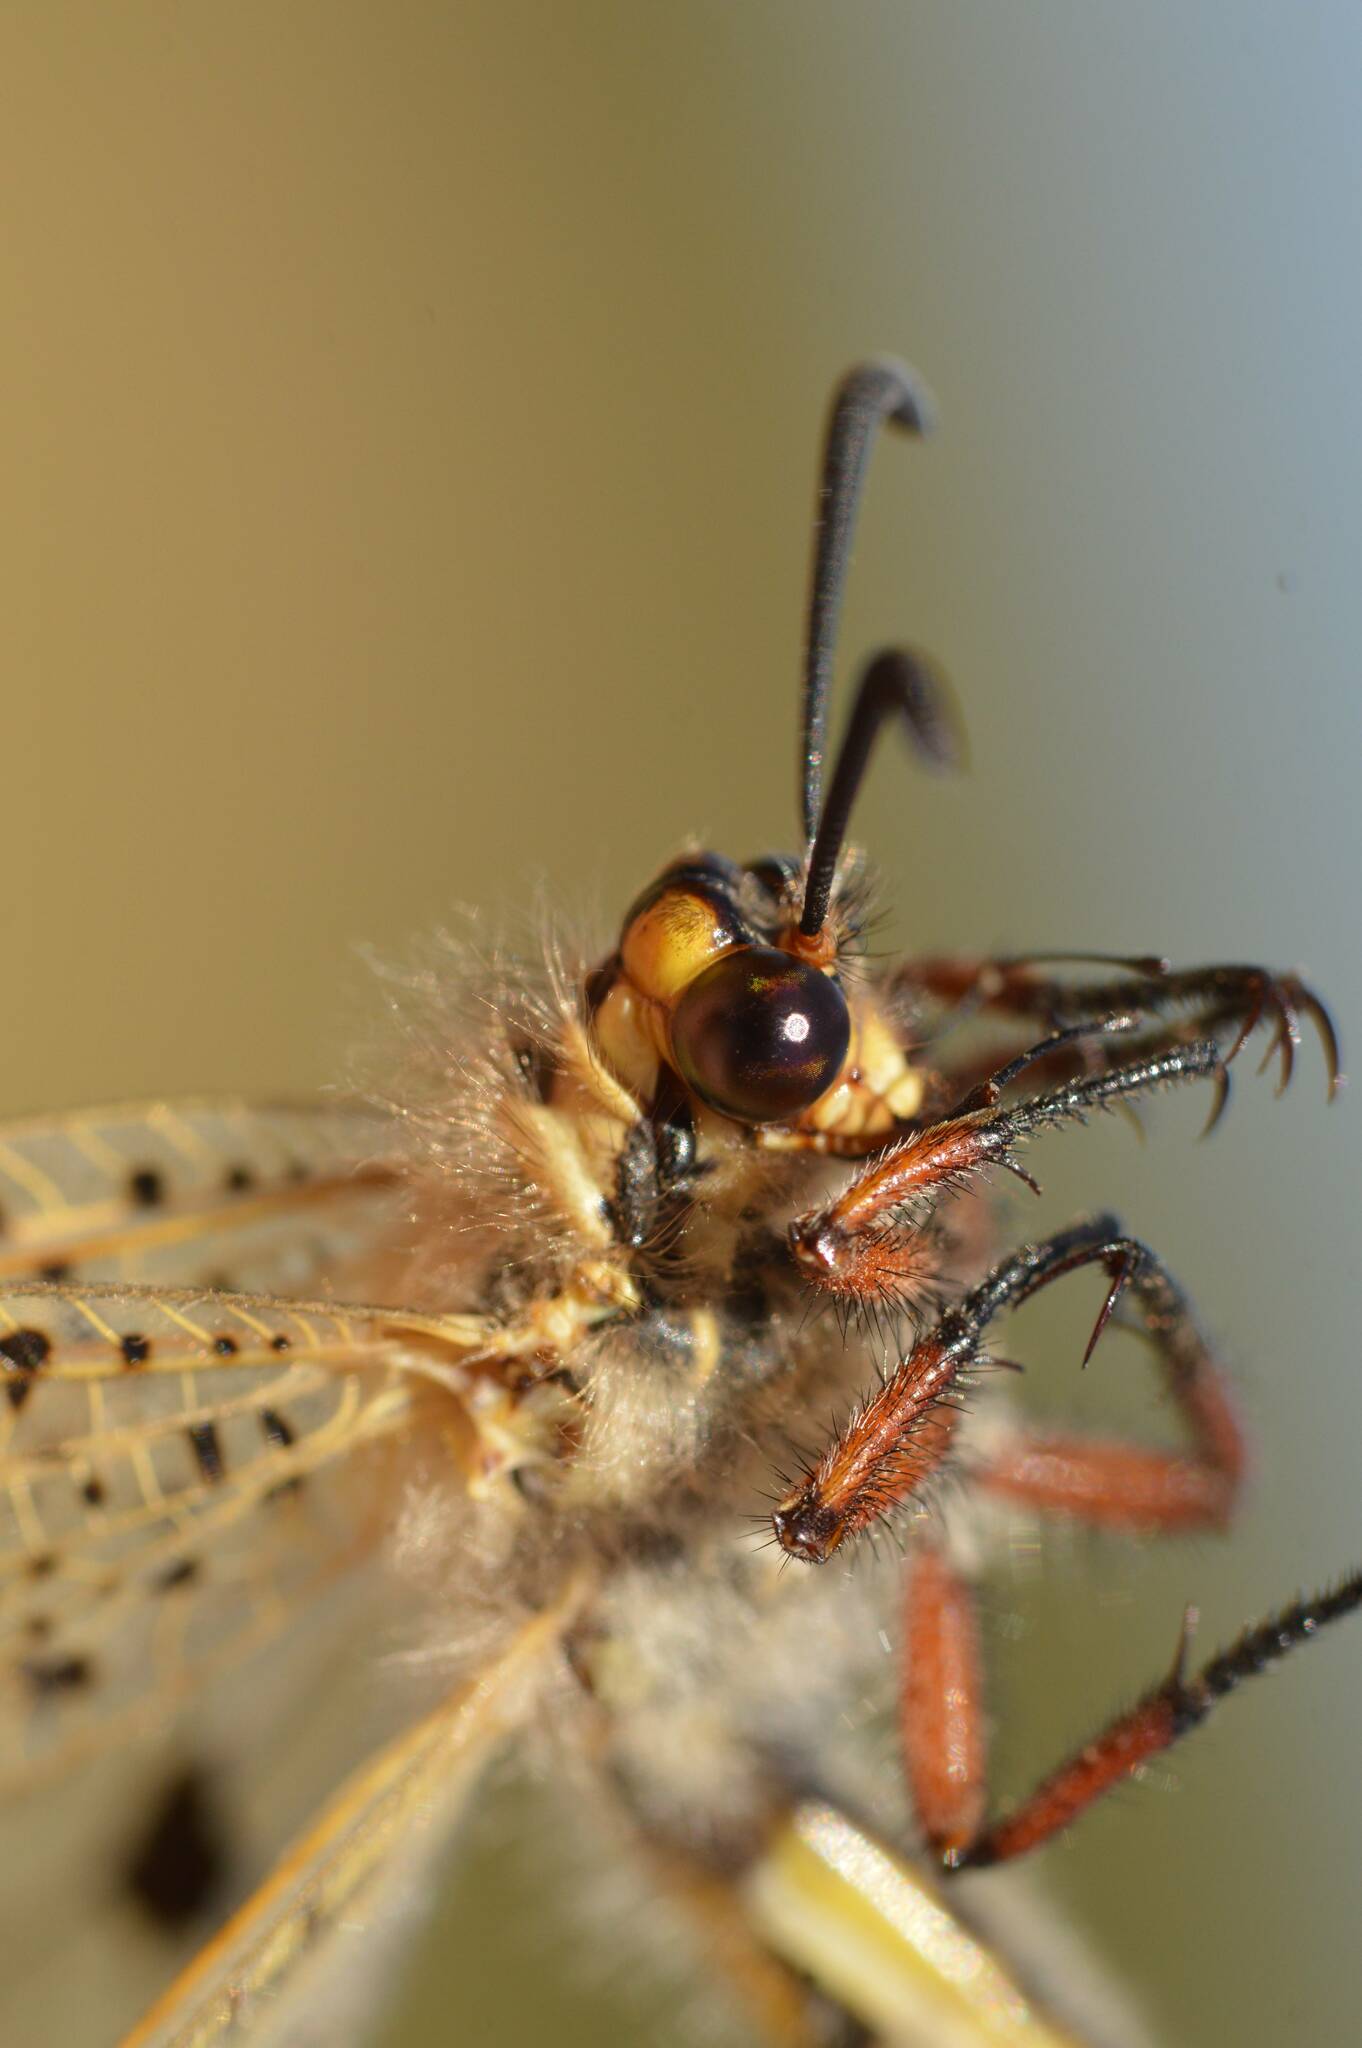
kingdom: Animalia
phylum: Arthropoda
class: Insecta
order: Neuroptera
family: Myrmeleontidae
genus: Palpares
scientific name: Palpares libelluloides
